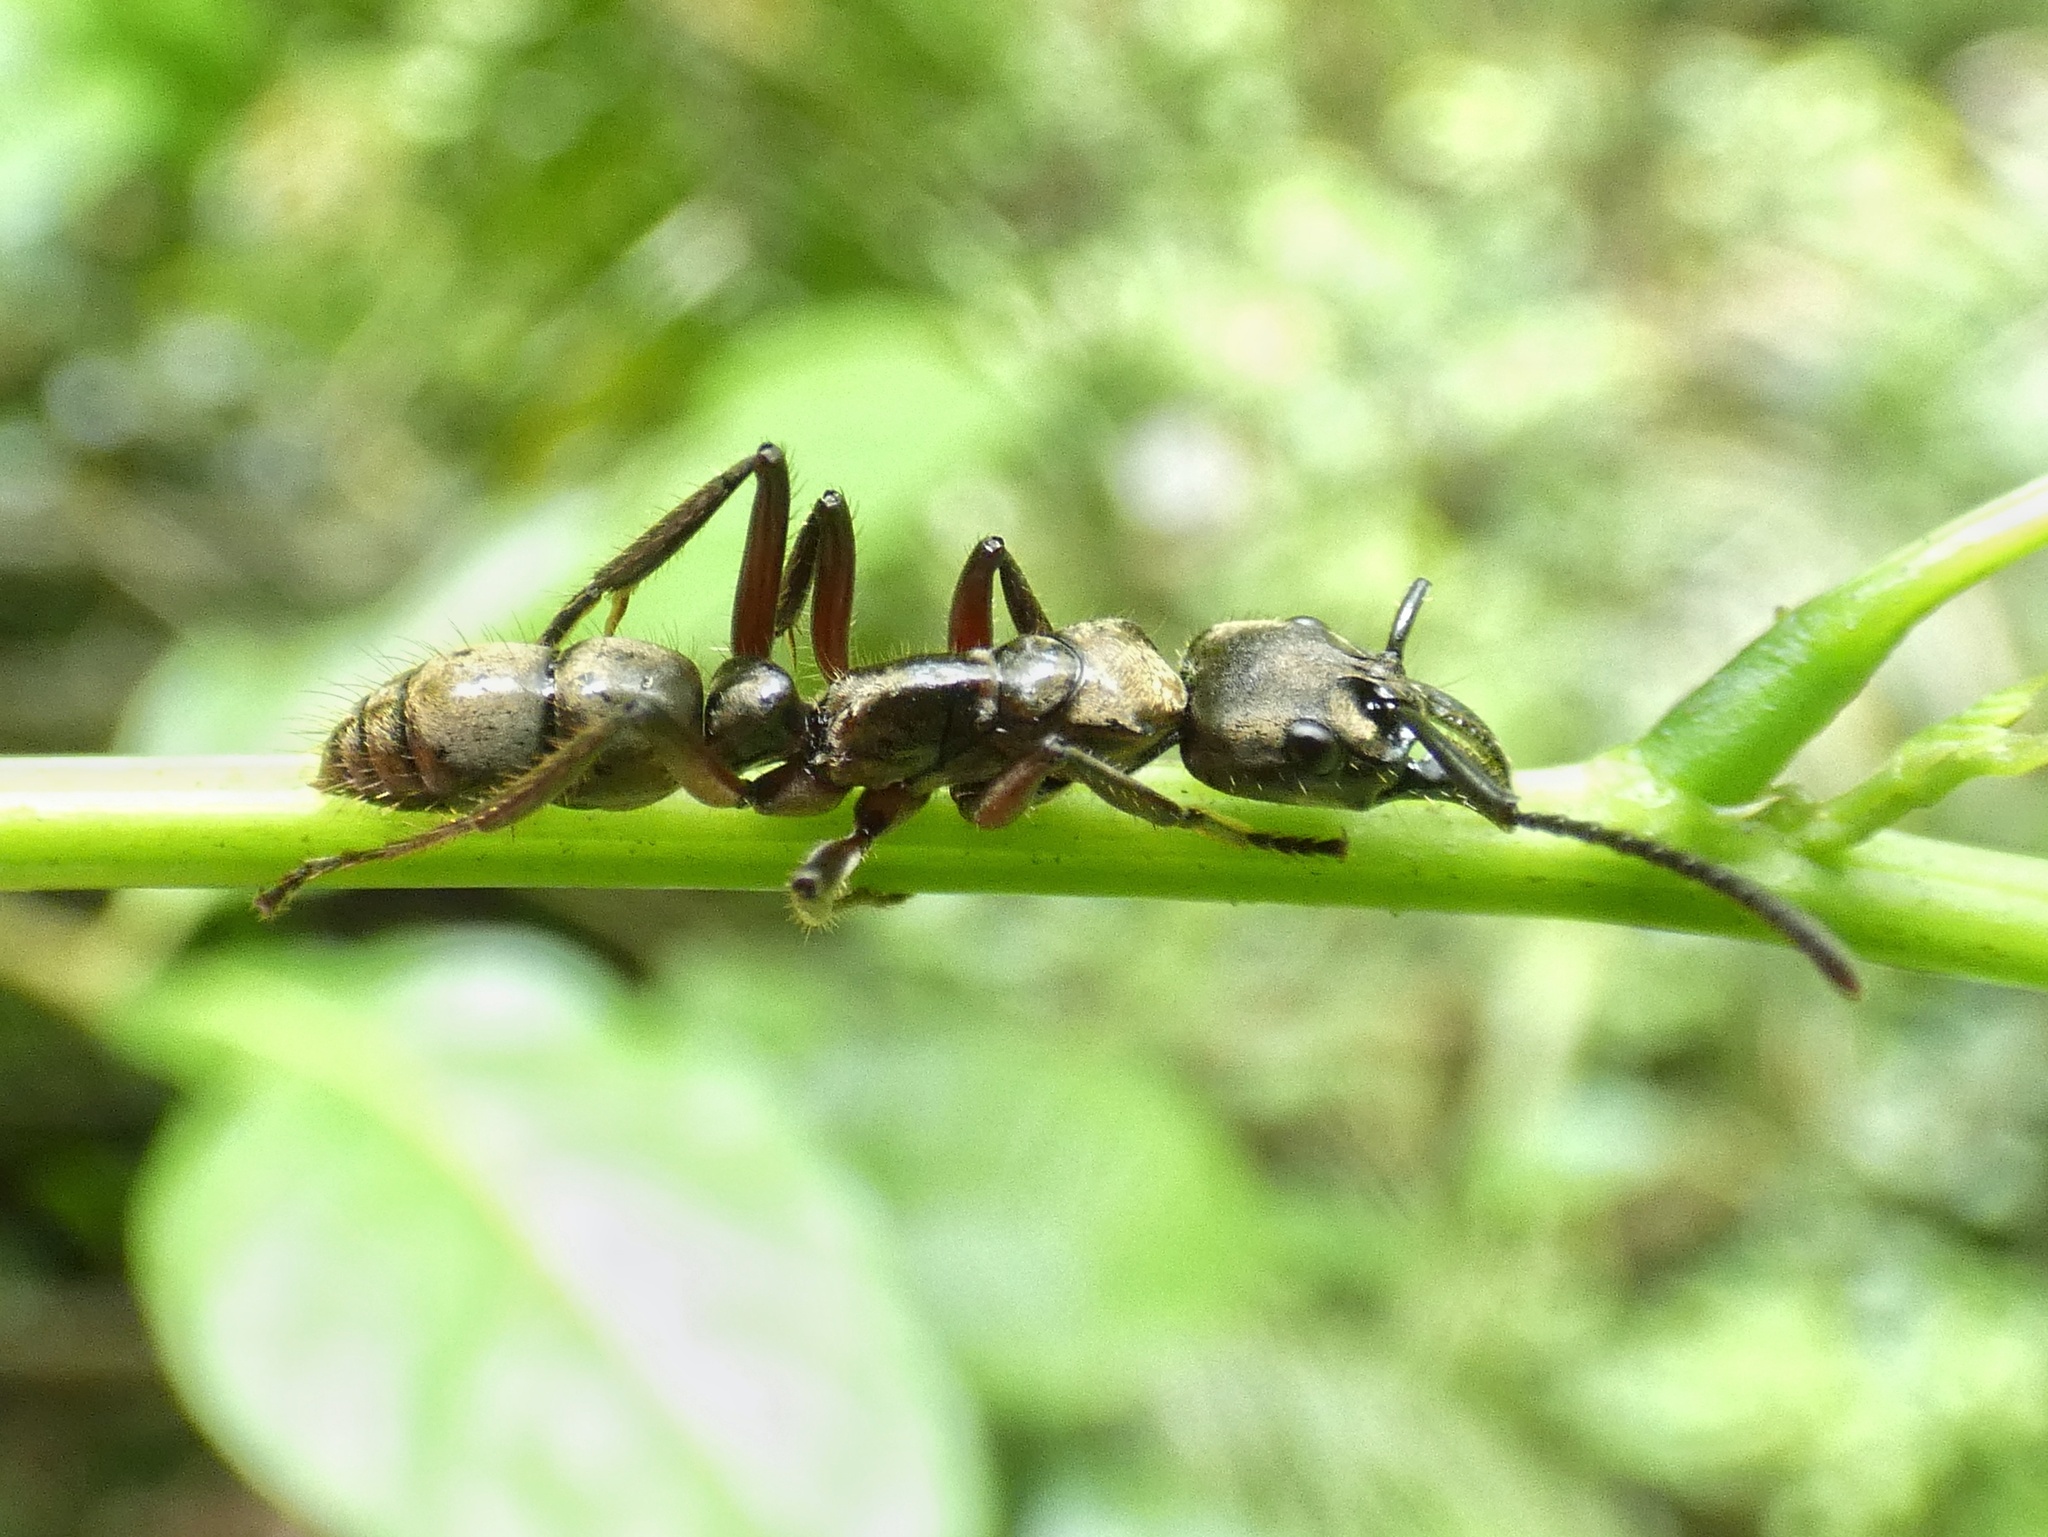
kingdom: Animalia
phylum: Arthropoda
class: Insecta
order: Hymenoptera
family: Formicidae
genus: Neoponera
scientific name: Neoponera
